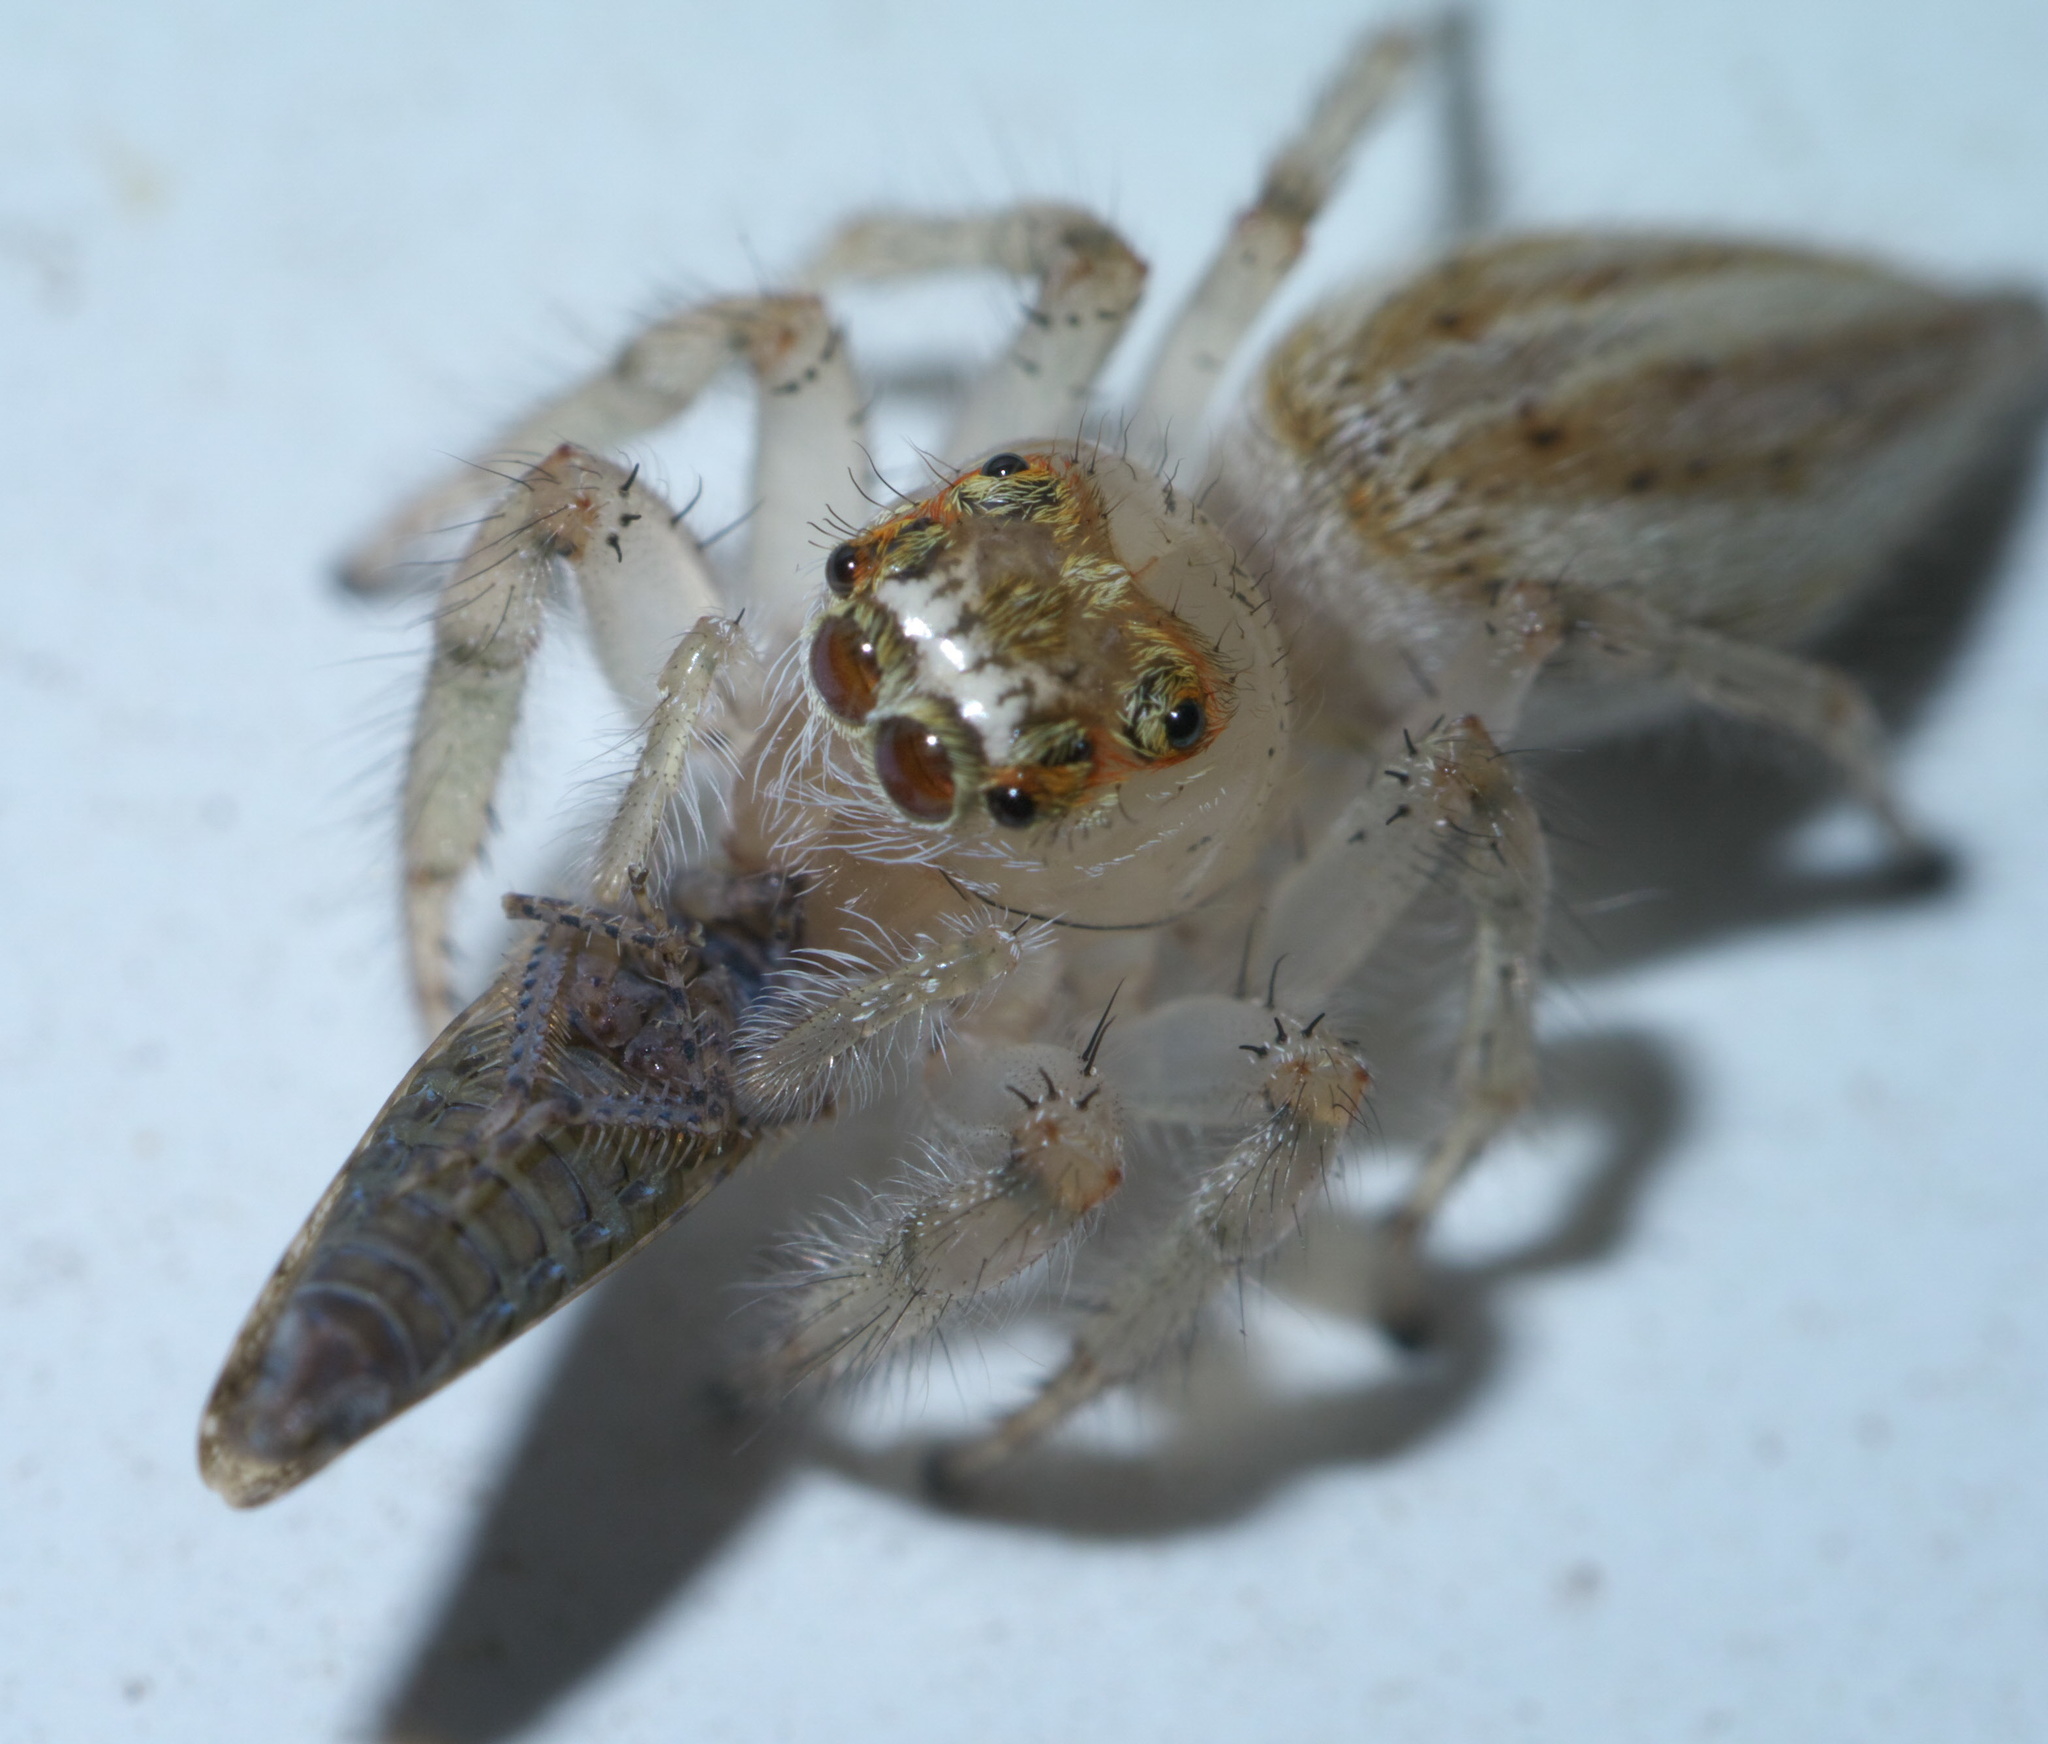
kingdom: Animalia
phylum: Arthropoda
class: Arachnida
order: Araneae
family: Salticidae
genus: Colonus
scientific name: Colonus sylvanus
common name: Jumping spiders
